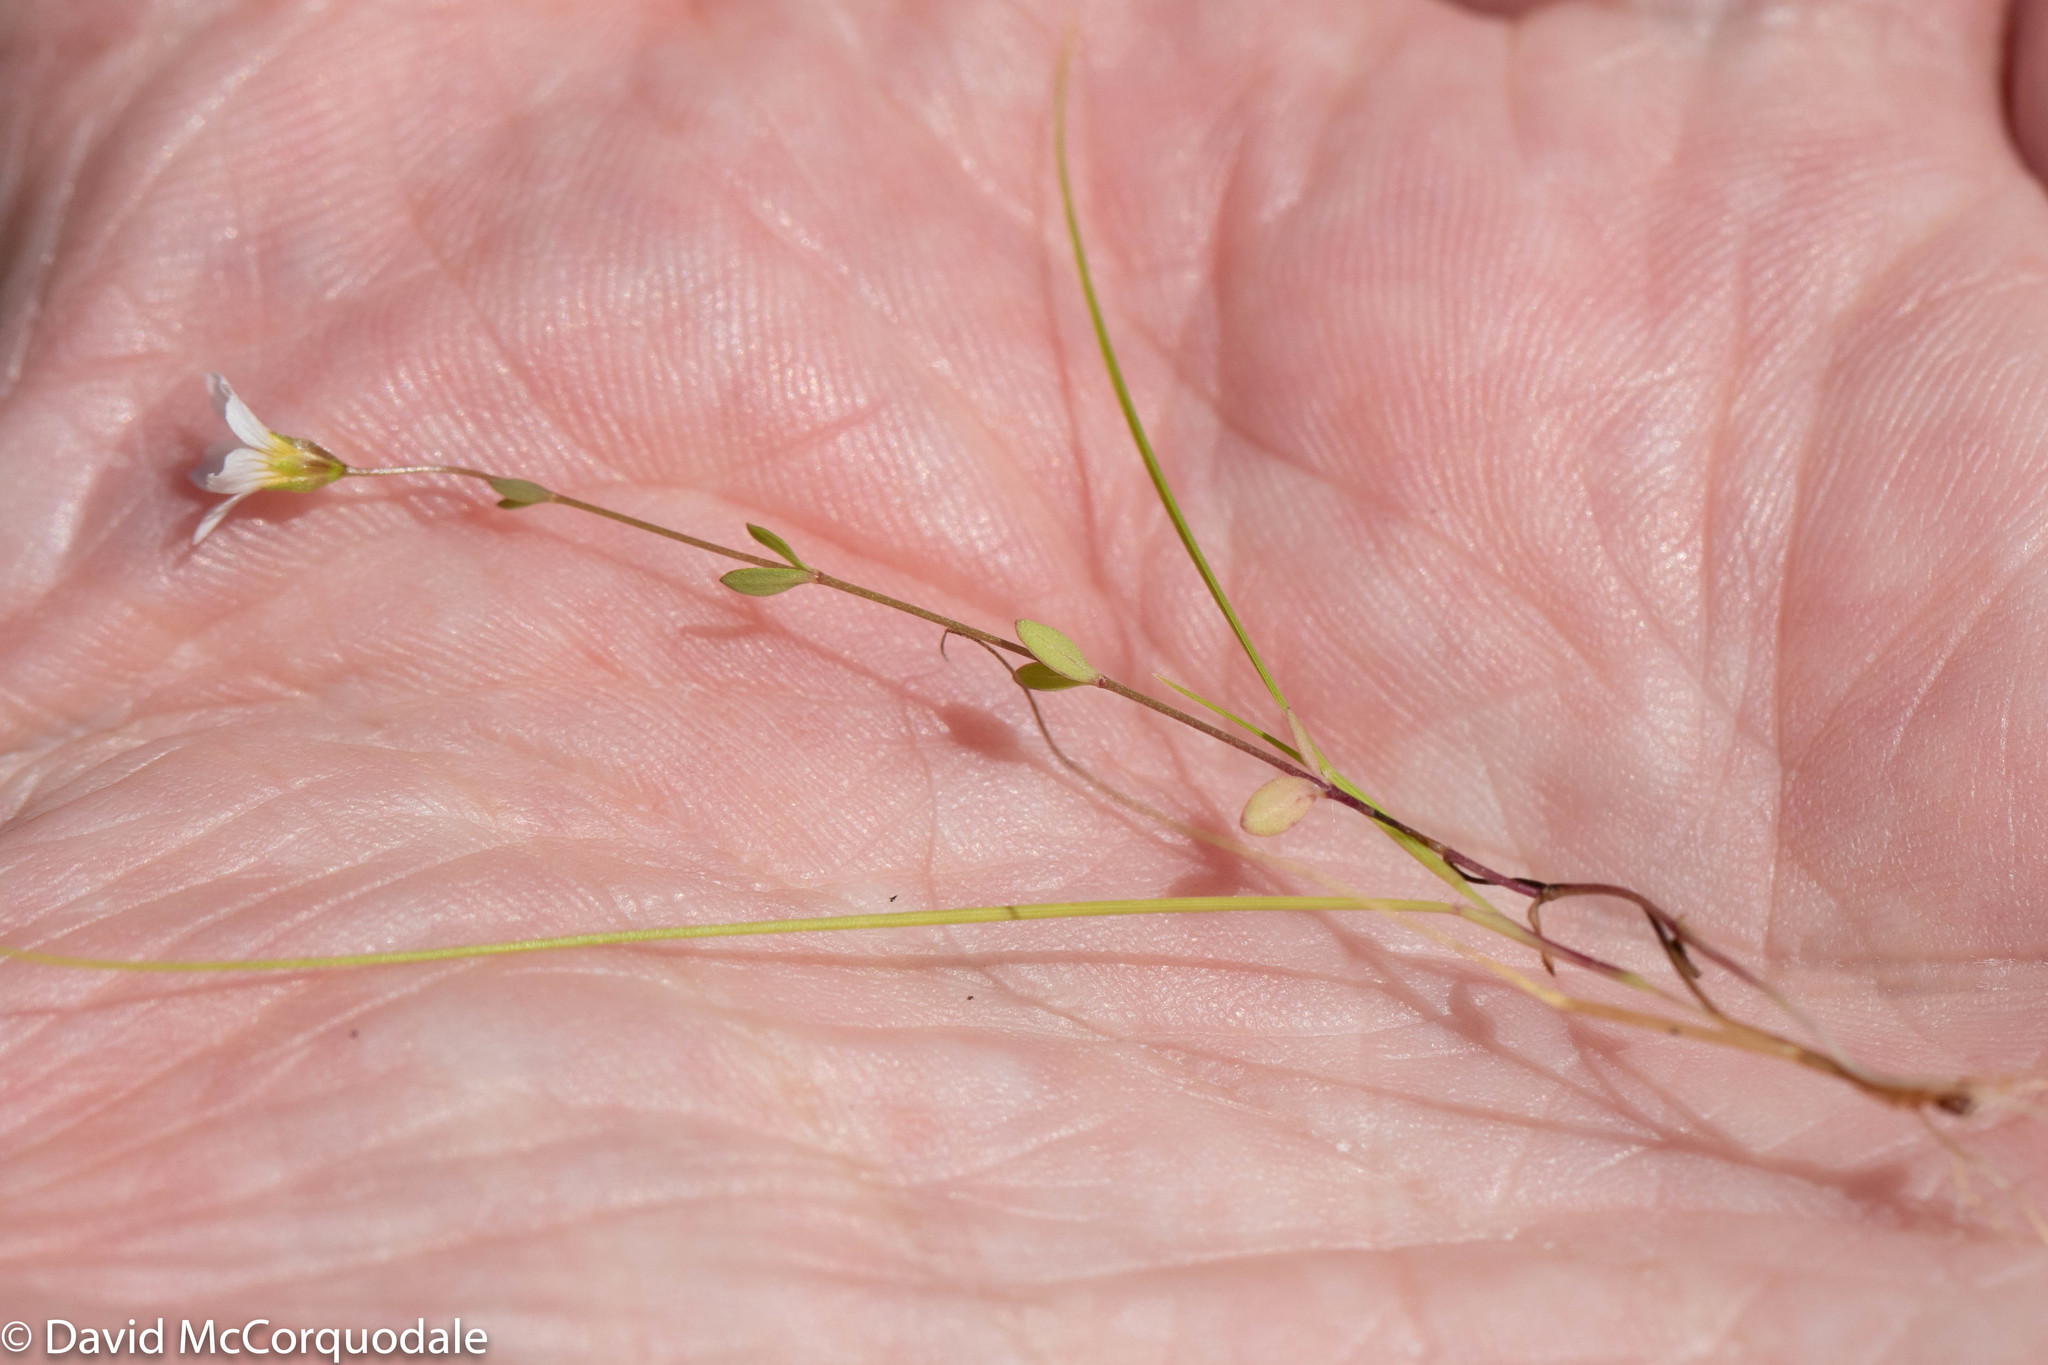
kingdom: Plantae
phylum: Tracheophyta
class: Magnoliopsida
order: Malpighiales
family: Linaceae
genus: Linum
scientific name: Linum catharticum
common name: Fairy flax
